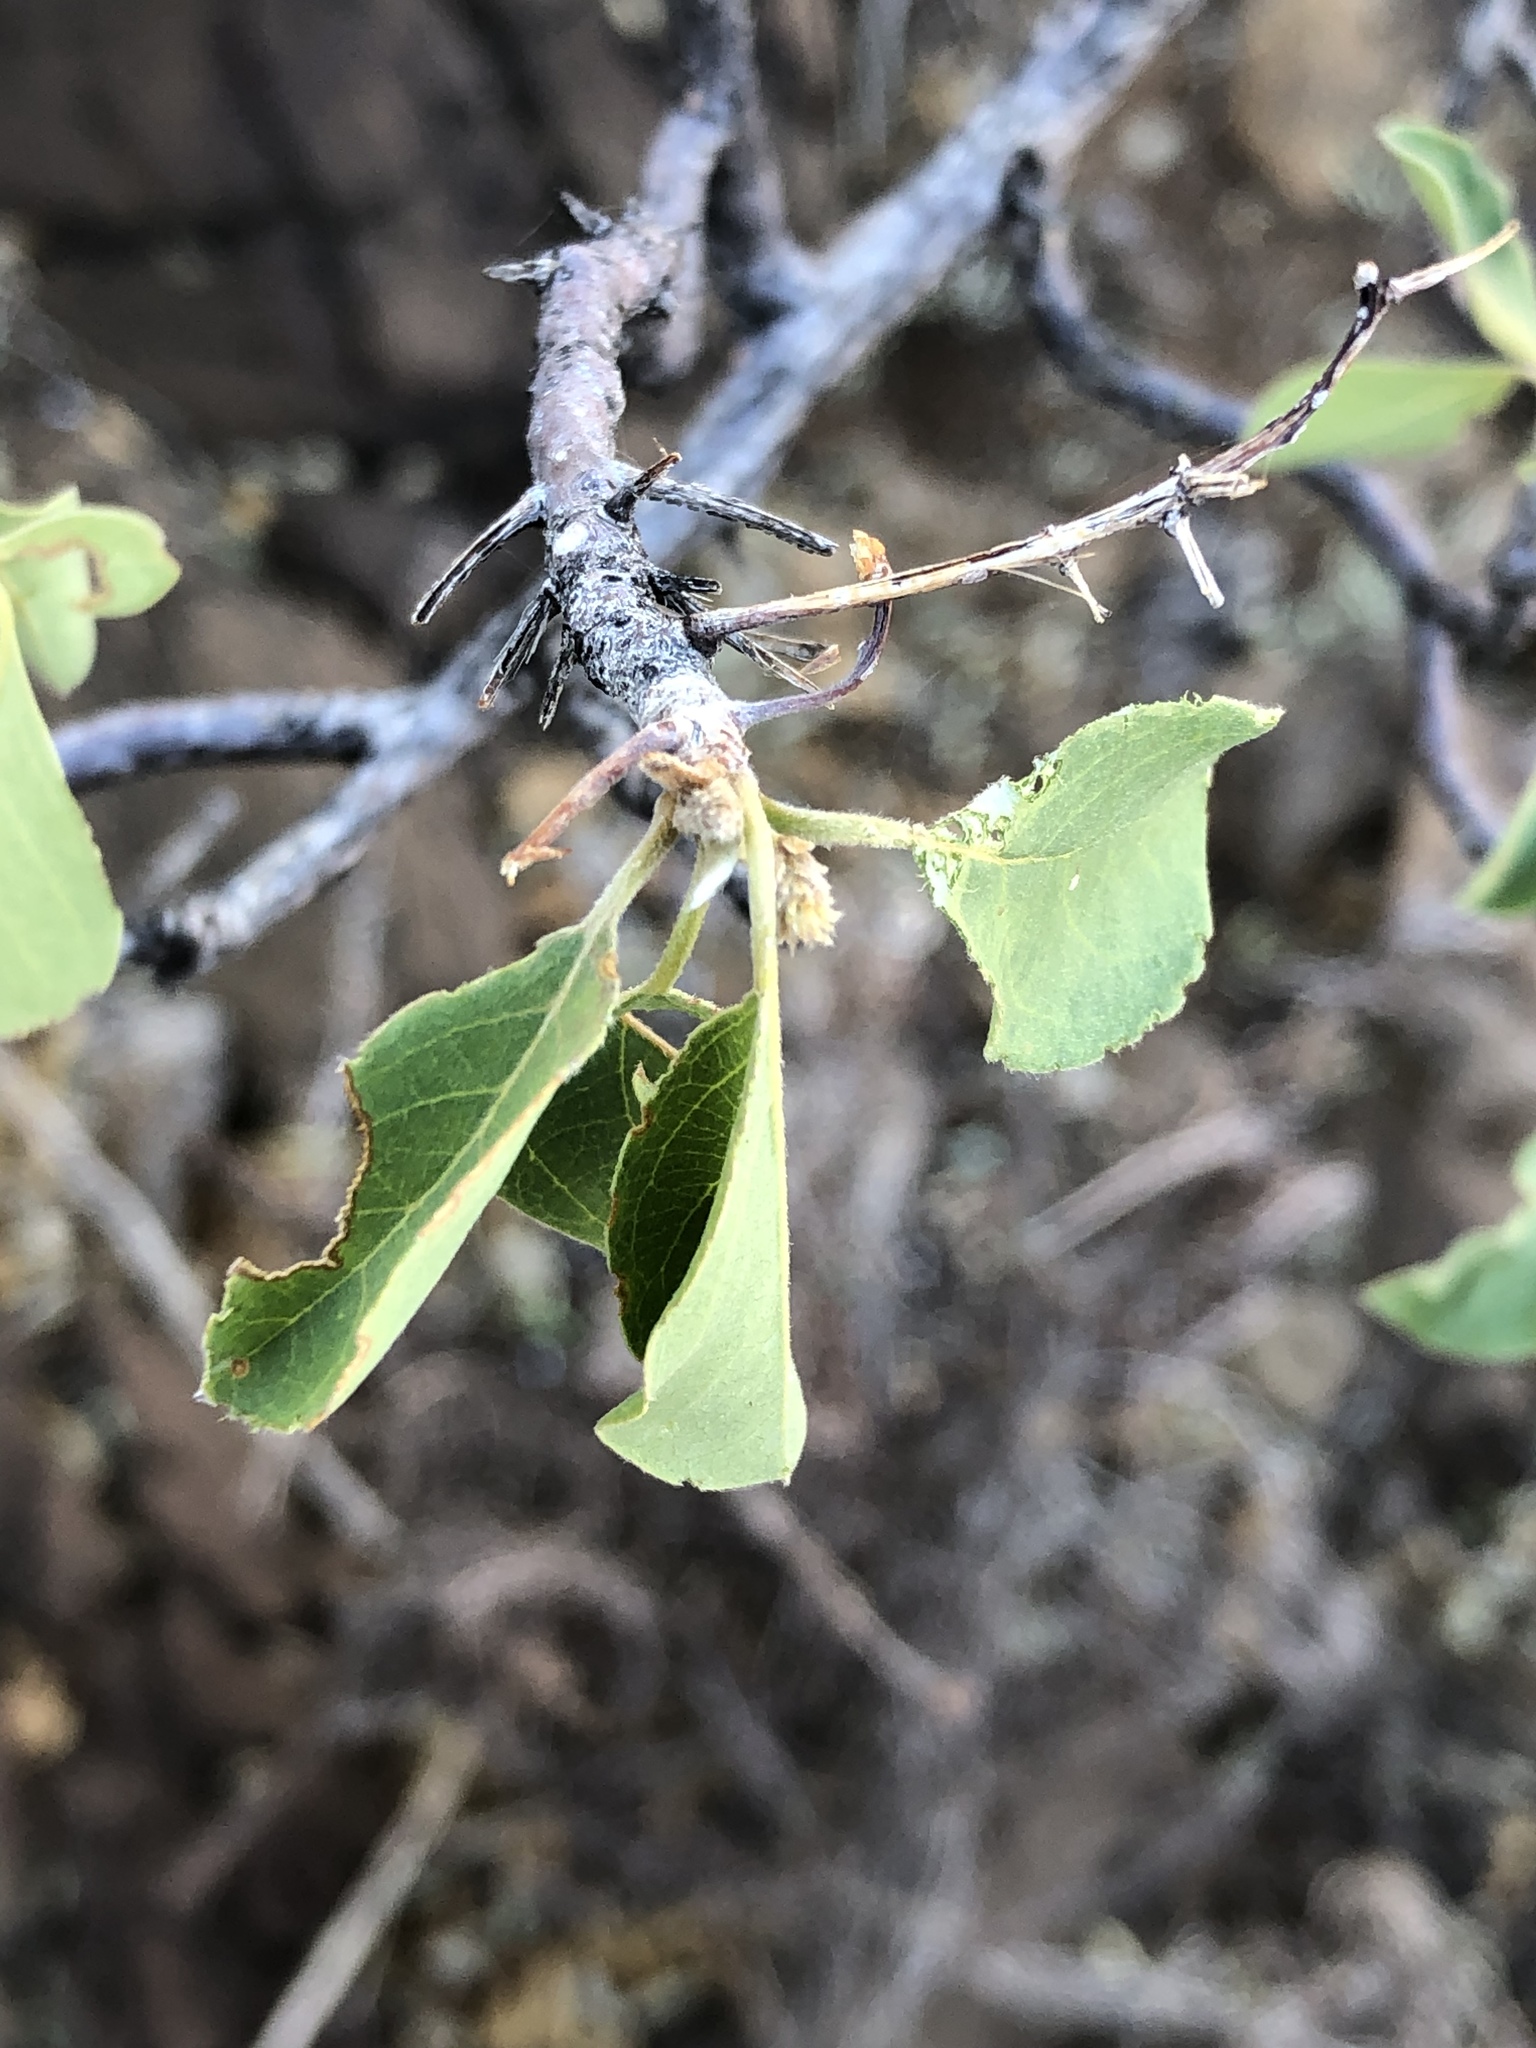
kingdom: Plantae
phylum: Tracheophyta
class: Magnoliopsida
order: Myrtales
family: Combretaceae
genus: Terminalia
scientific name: Terminalia prunioides
